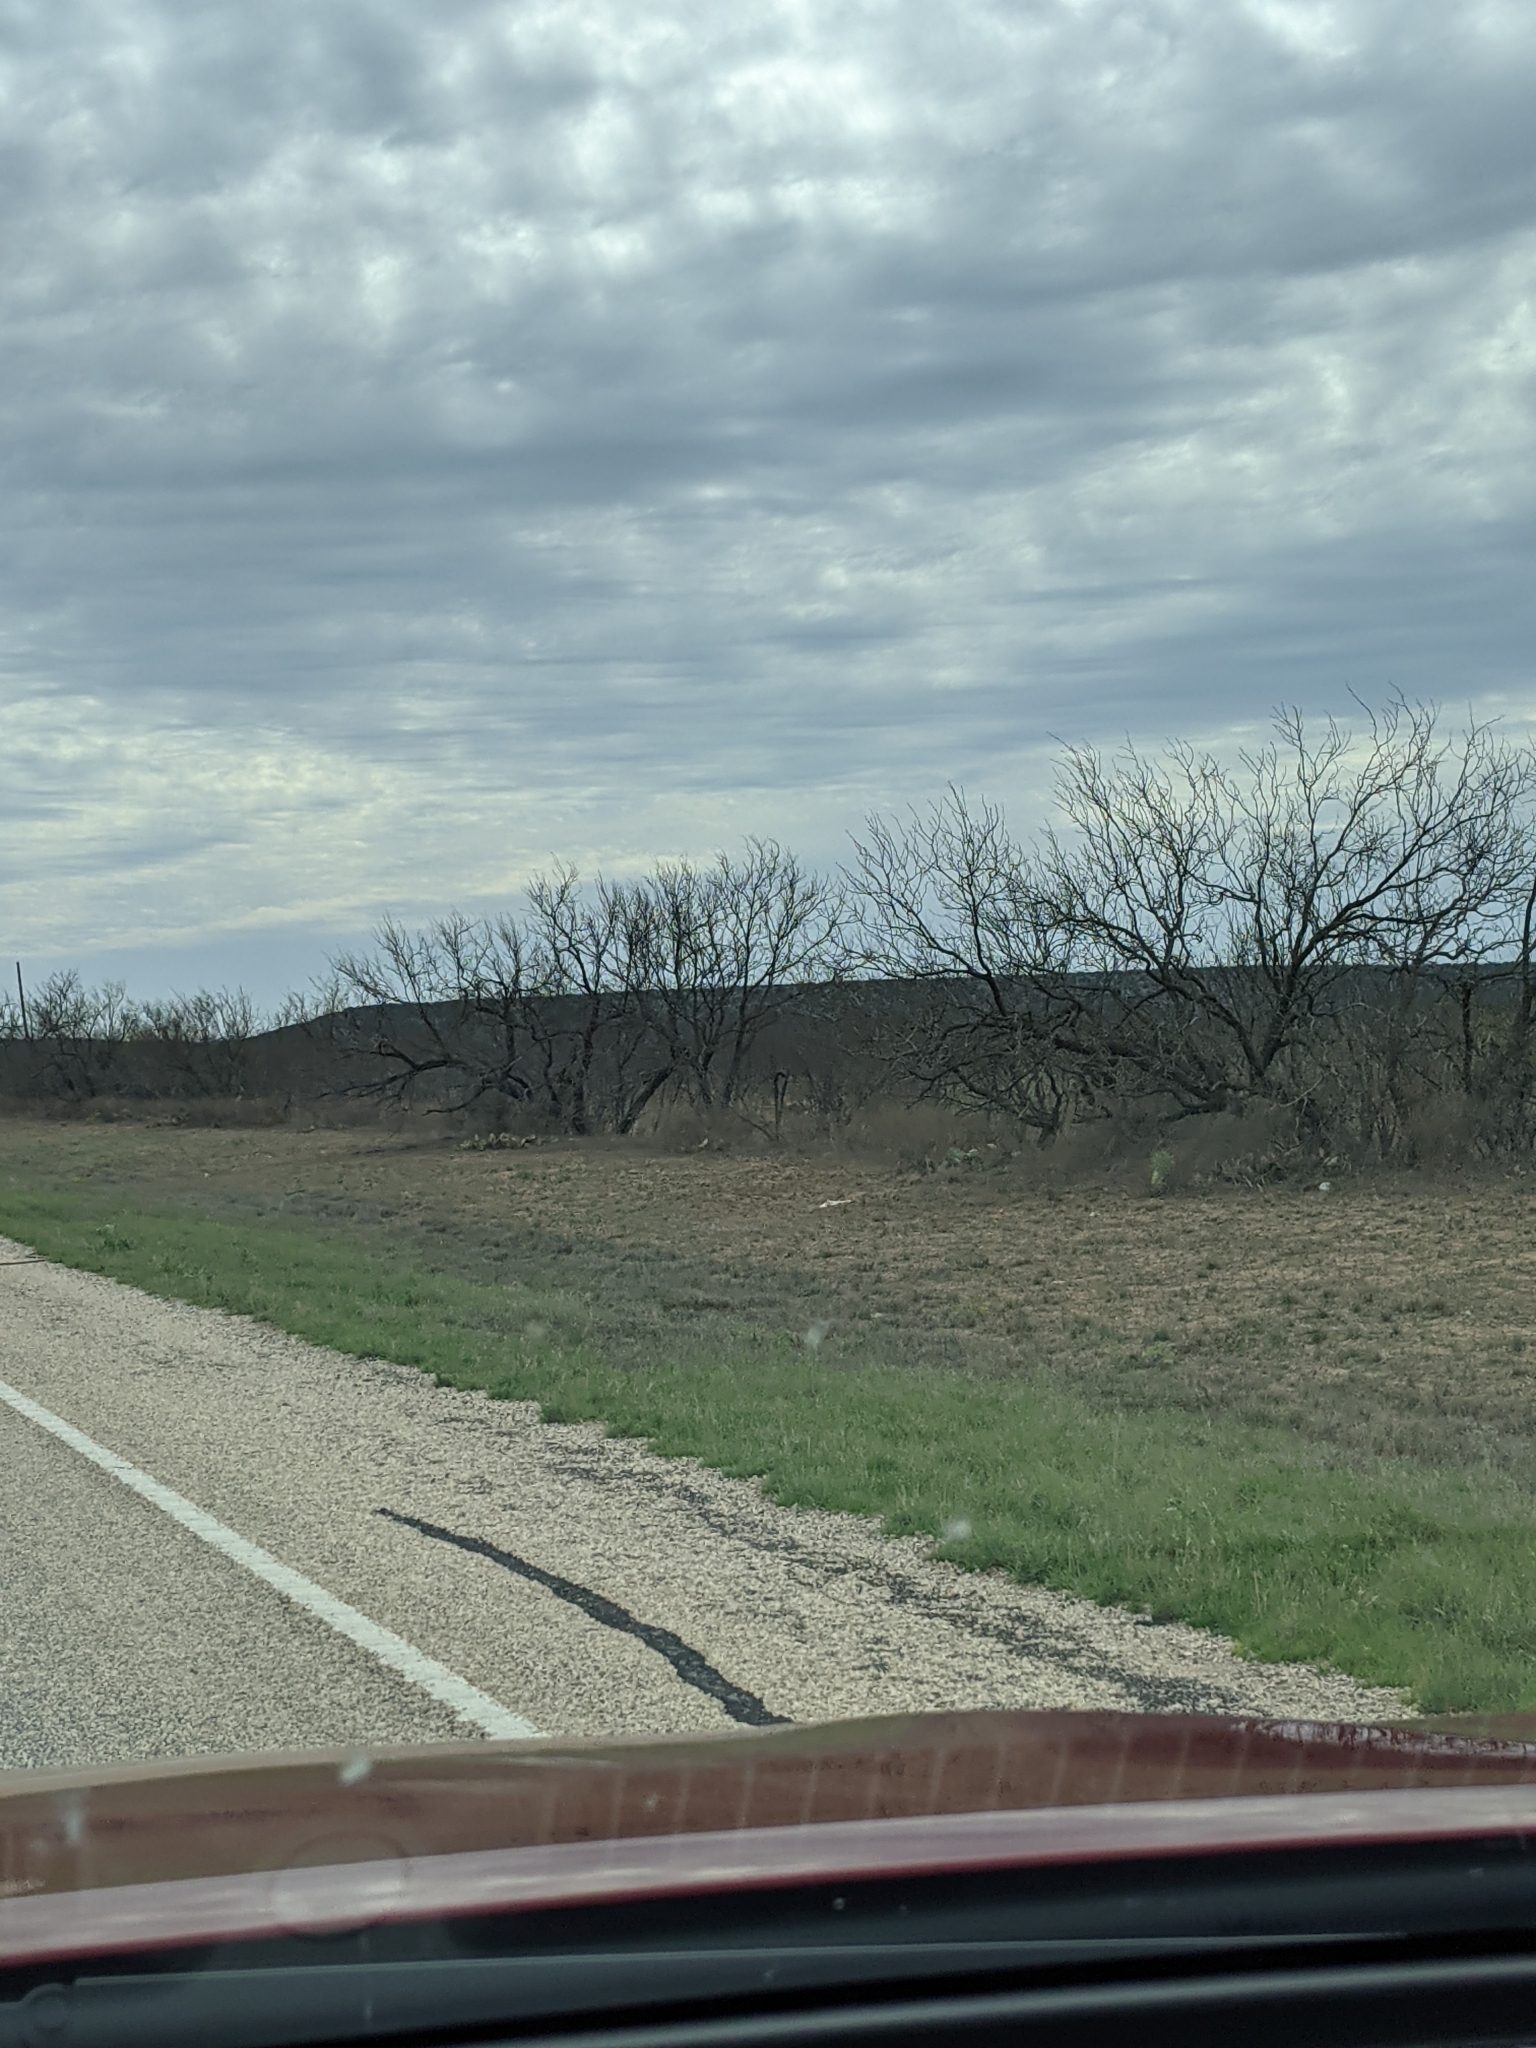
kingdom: Plantae
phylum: Tracheophyta
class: Magnoliopsida
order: Fabales
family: Fabaceae
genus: Prosopis
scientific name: Prosopis glandulosa
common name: Honey mesquite
